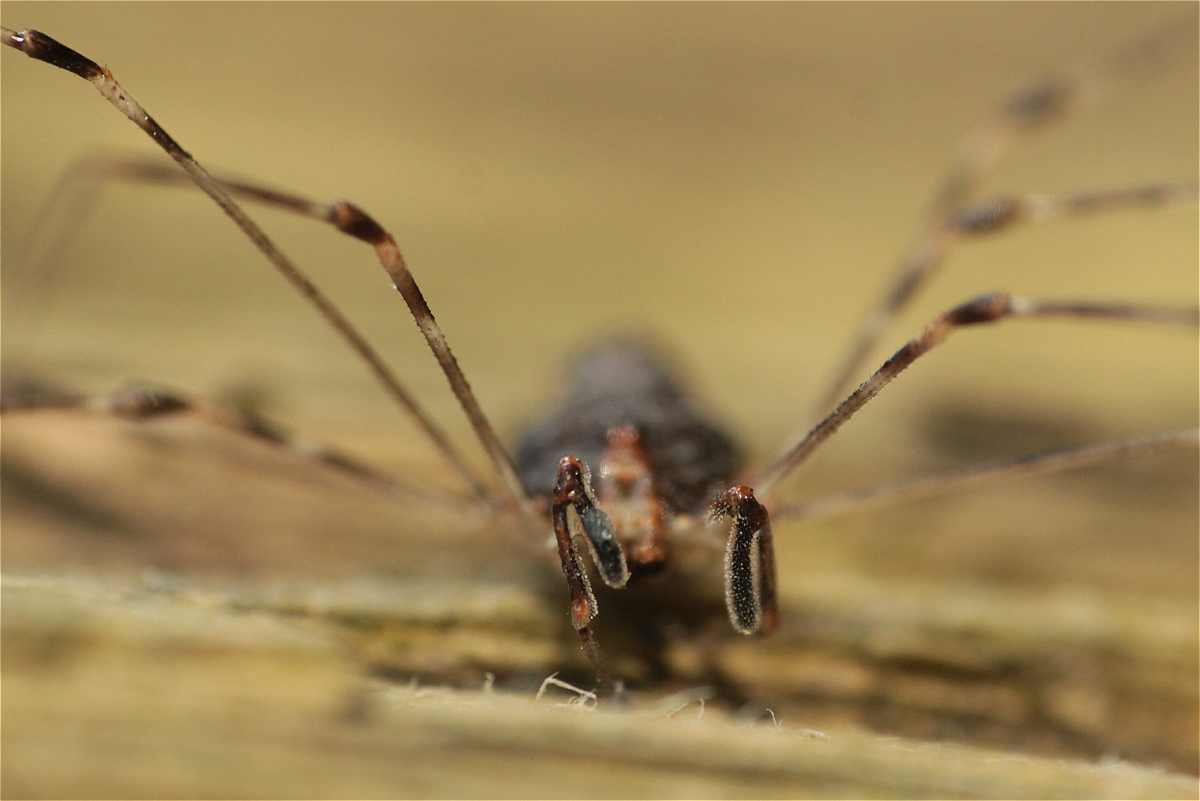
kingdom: Animalia
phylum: Arthropoda
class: Arachnida
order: Opiliones
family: Phalangiidae
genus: Dicranopalpus
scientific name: Dicranopalpus ramosus
